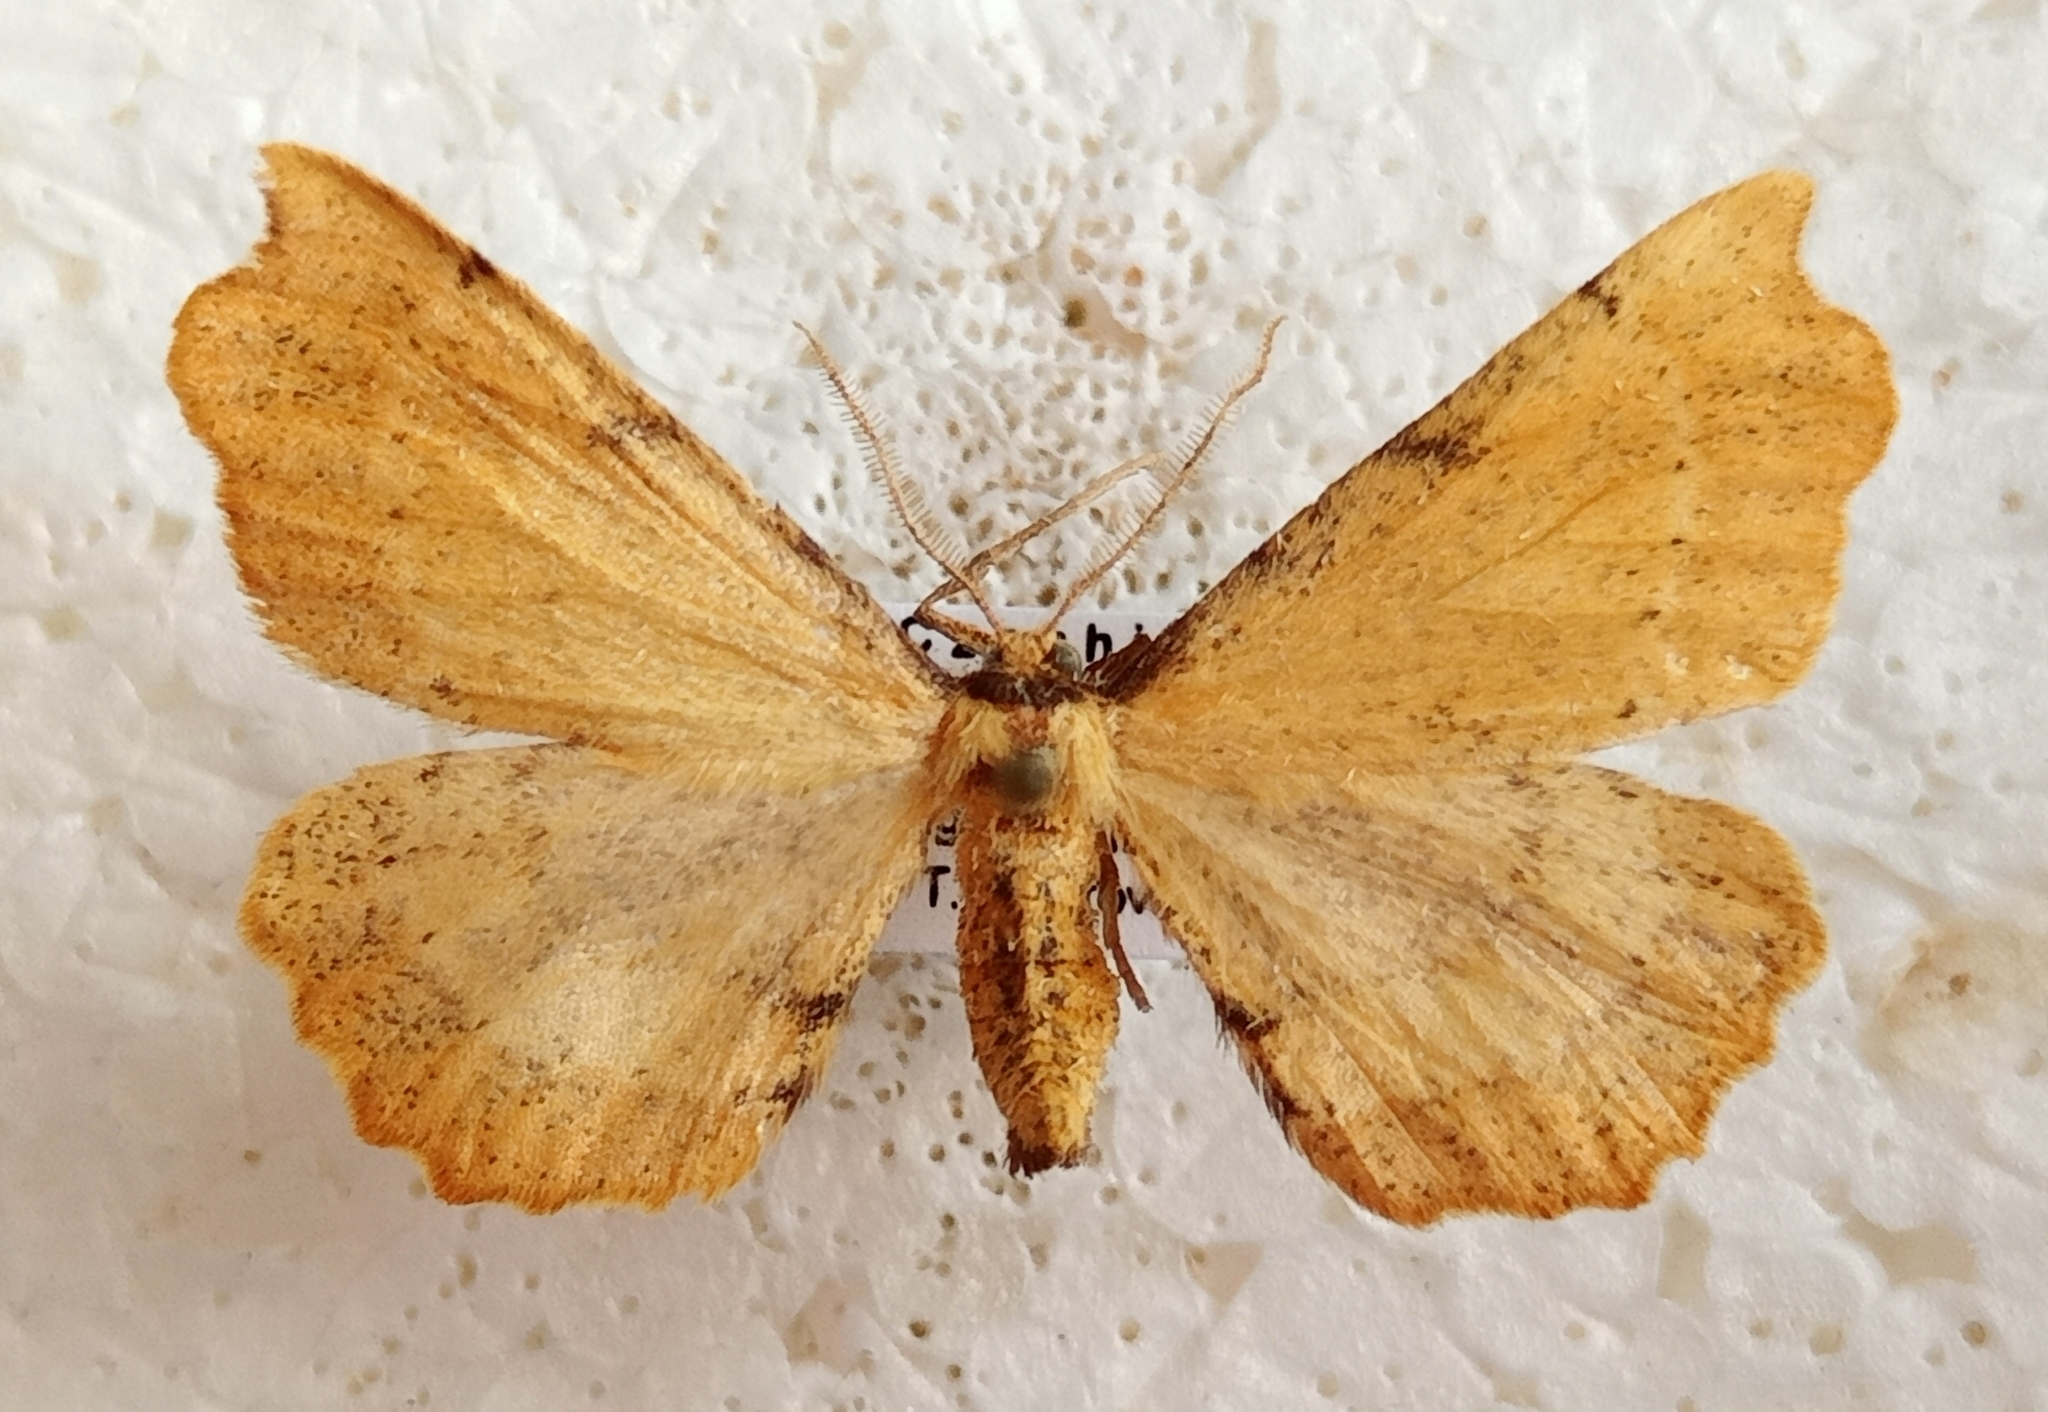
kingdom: Animalia
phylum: Arthropoda
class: Insecta
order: Lepidoptera
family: Geometridae
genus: Artiora
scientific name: Artiora evonymaria
